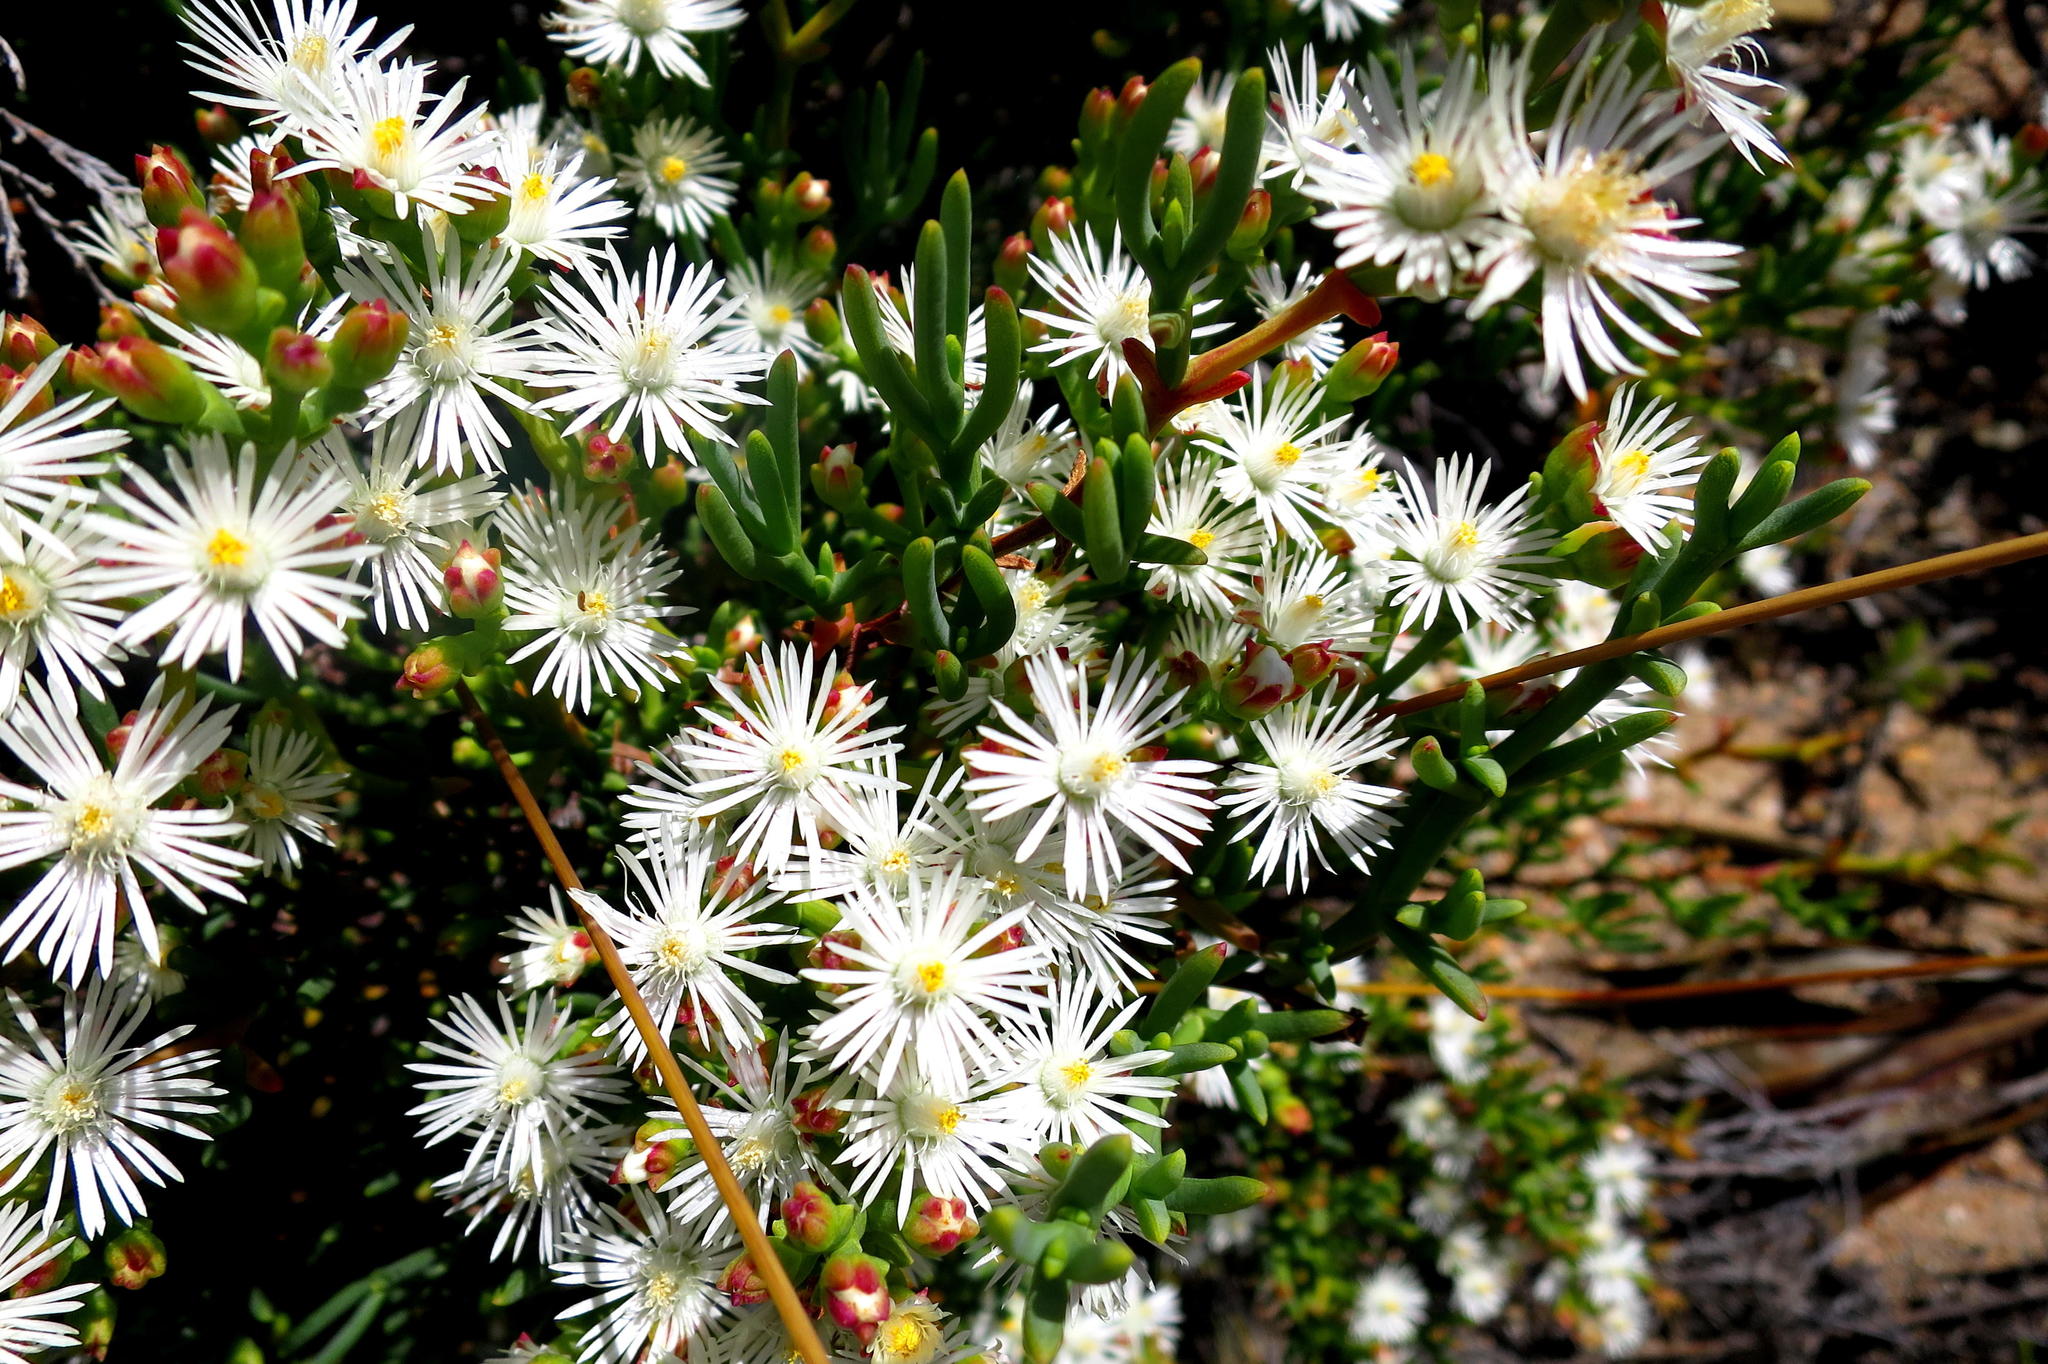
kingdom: Plantae
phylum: Tracheophyta
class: Magnoliopsida
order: Caryophyllales
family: Aizoaceae
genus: Ruschia
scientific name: Ruschia multiflora
